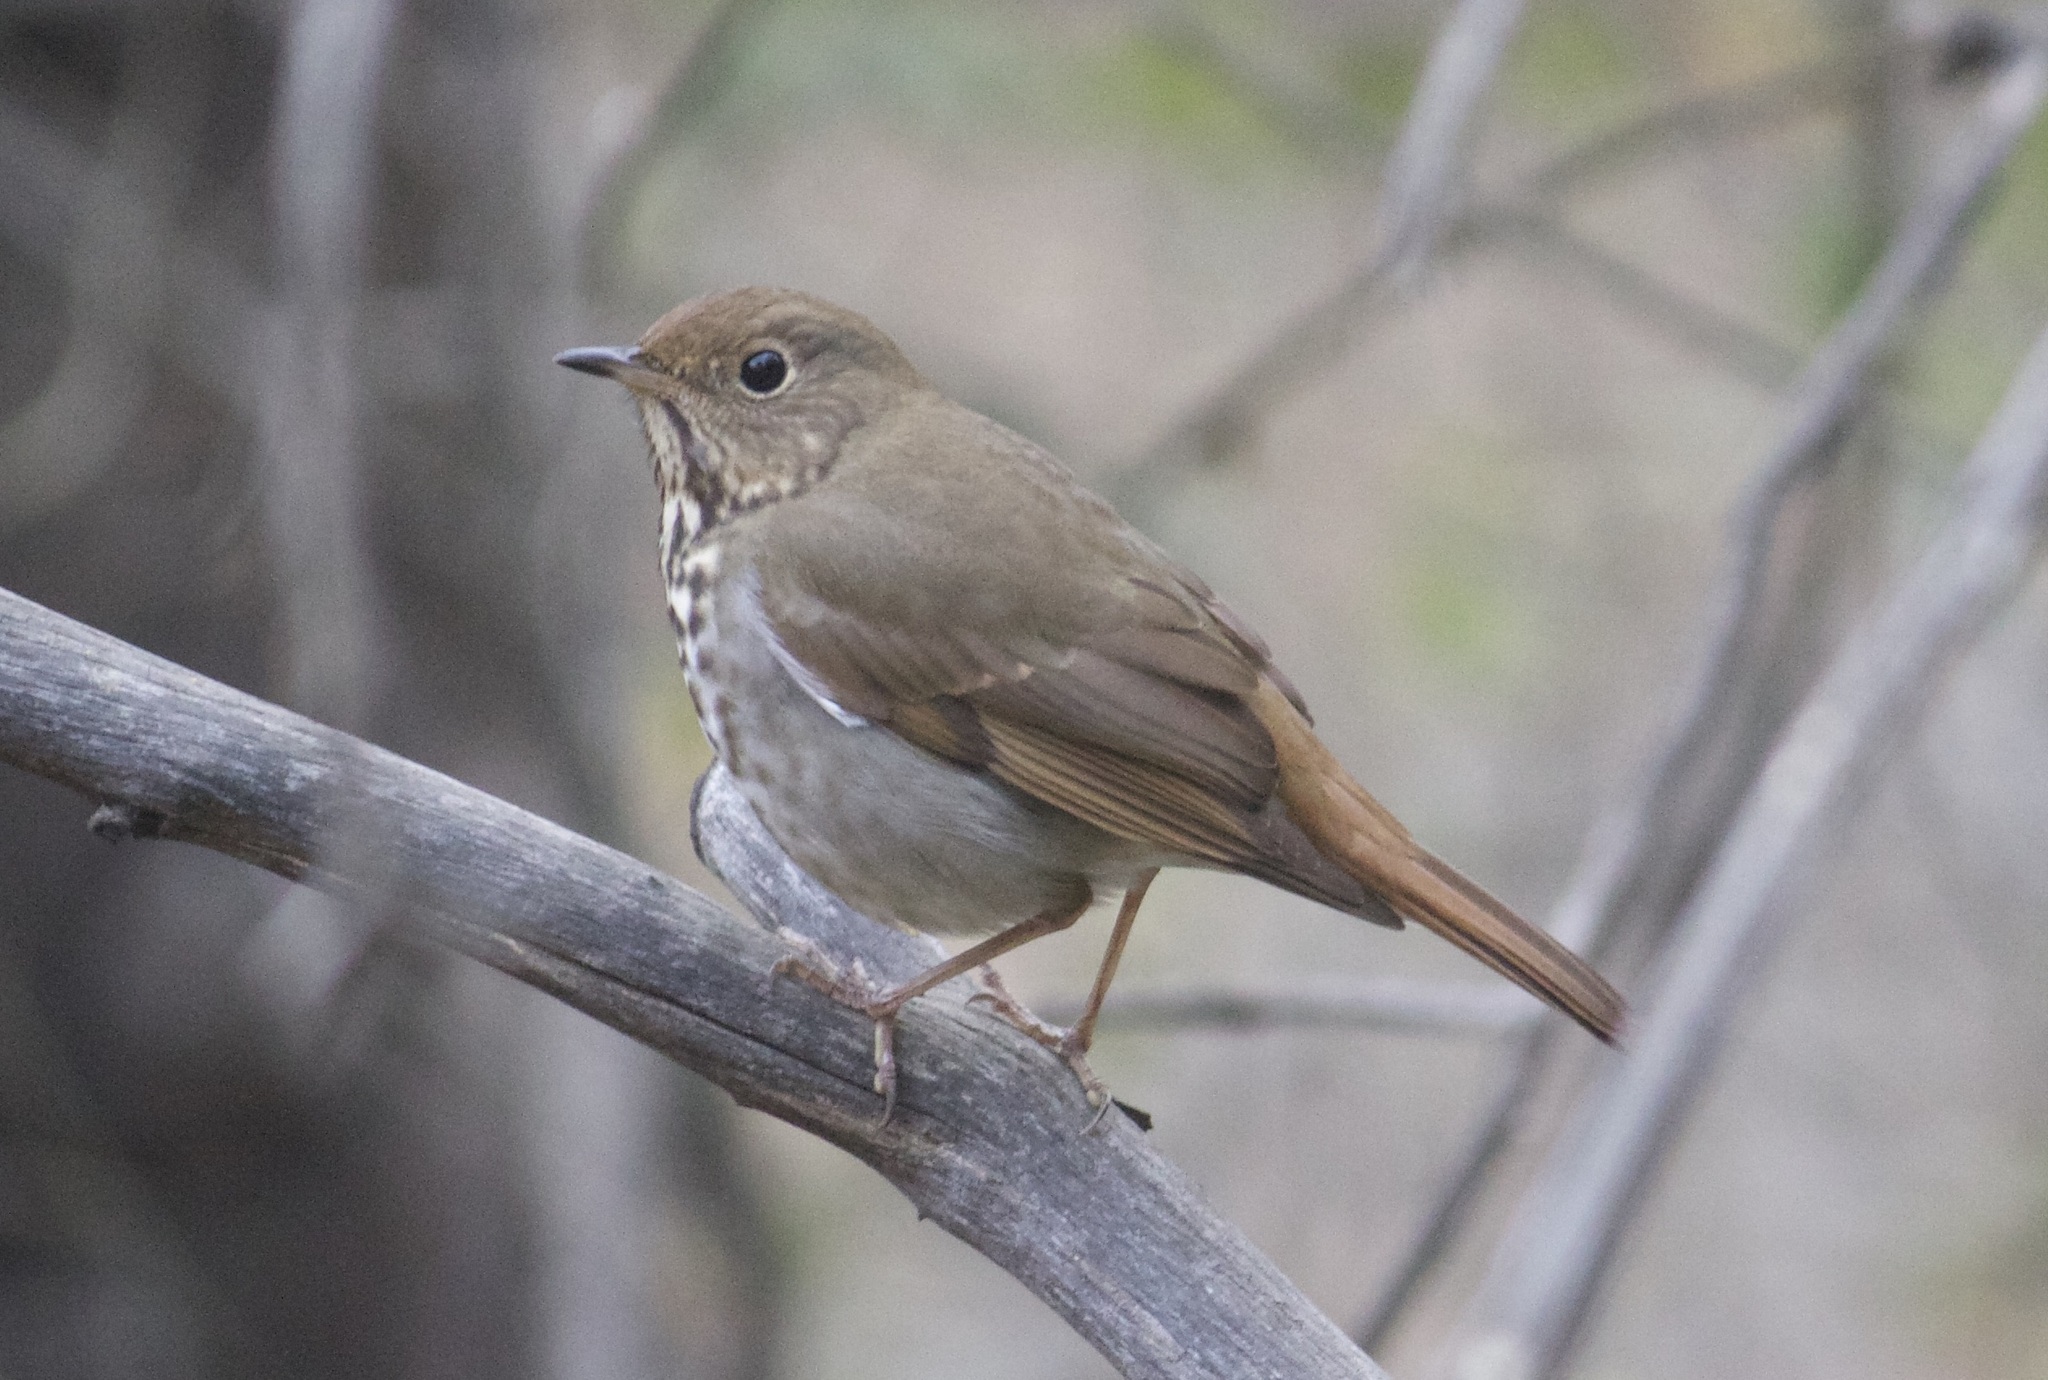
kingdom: Animalia
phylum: Chordata
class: Aves
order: Passeriformes
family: Turdidae
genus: Catharus
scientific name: Catharus guttatus
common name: Hermit thrush
